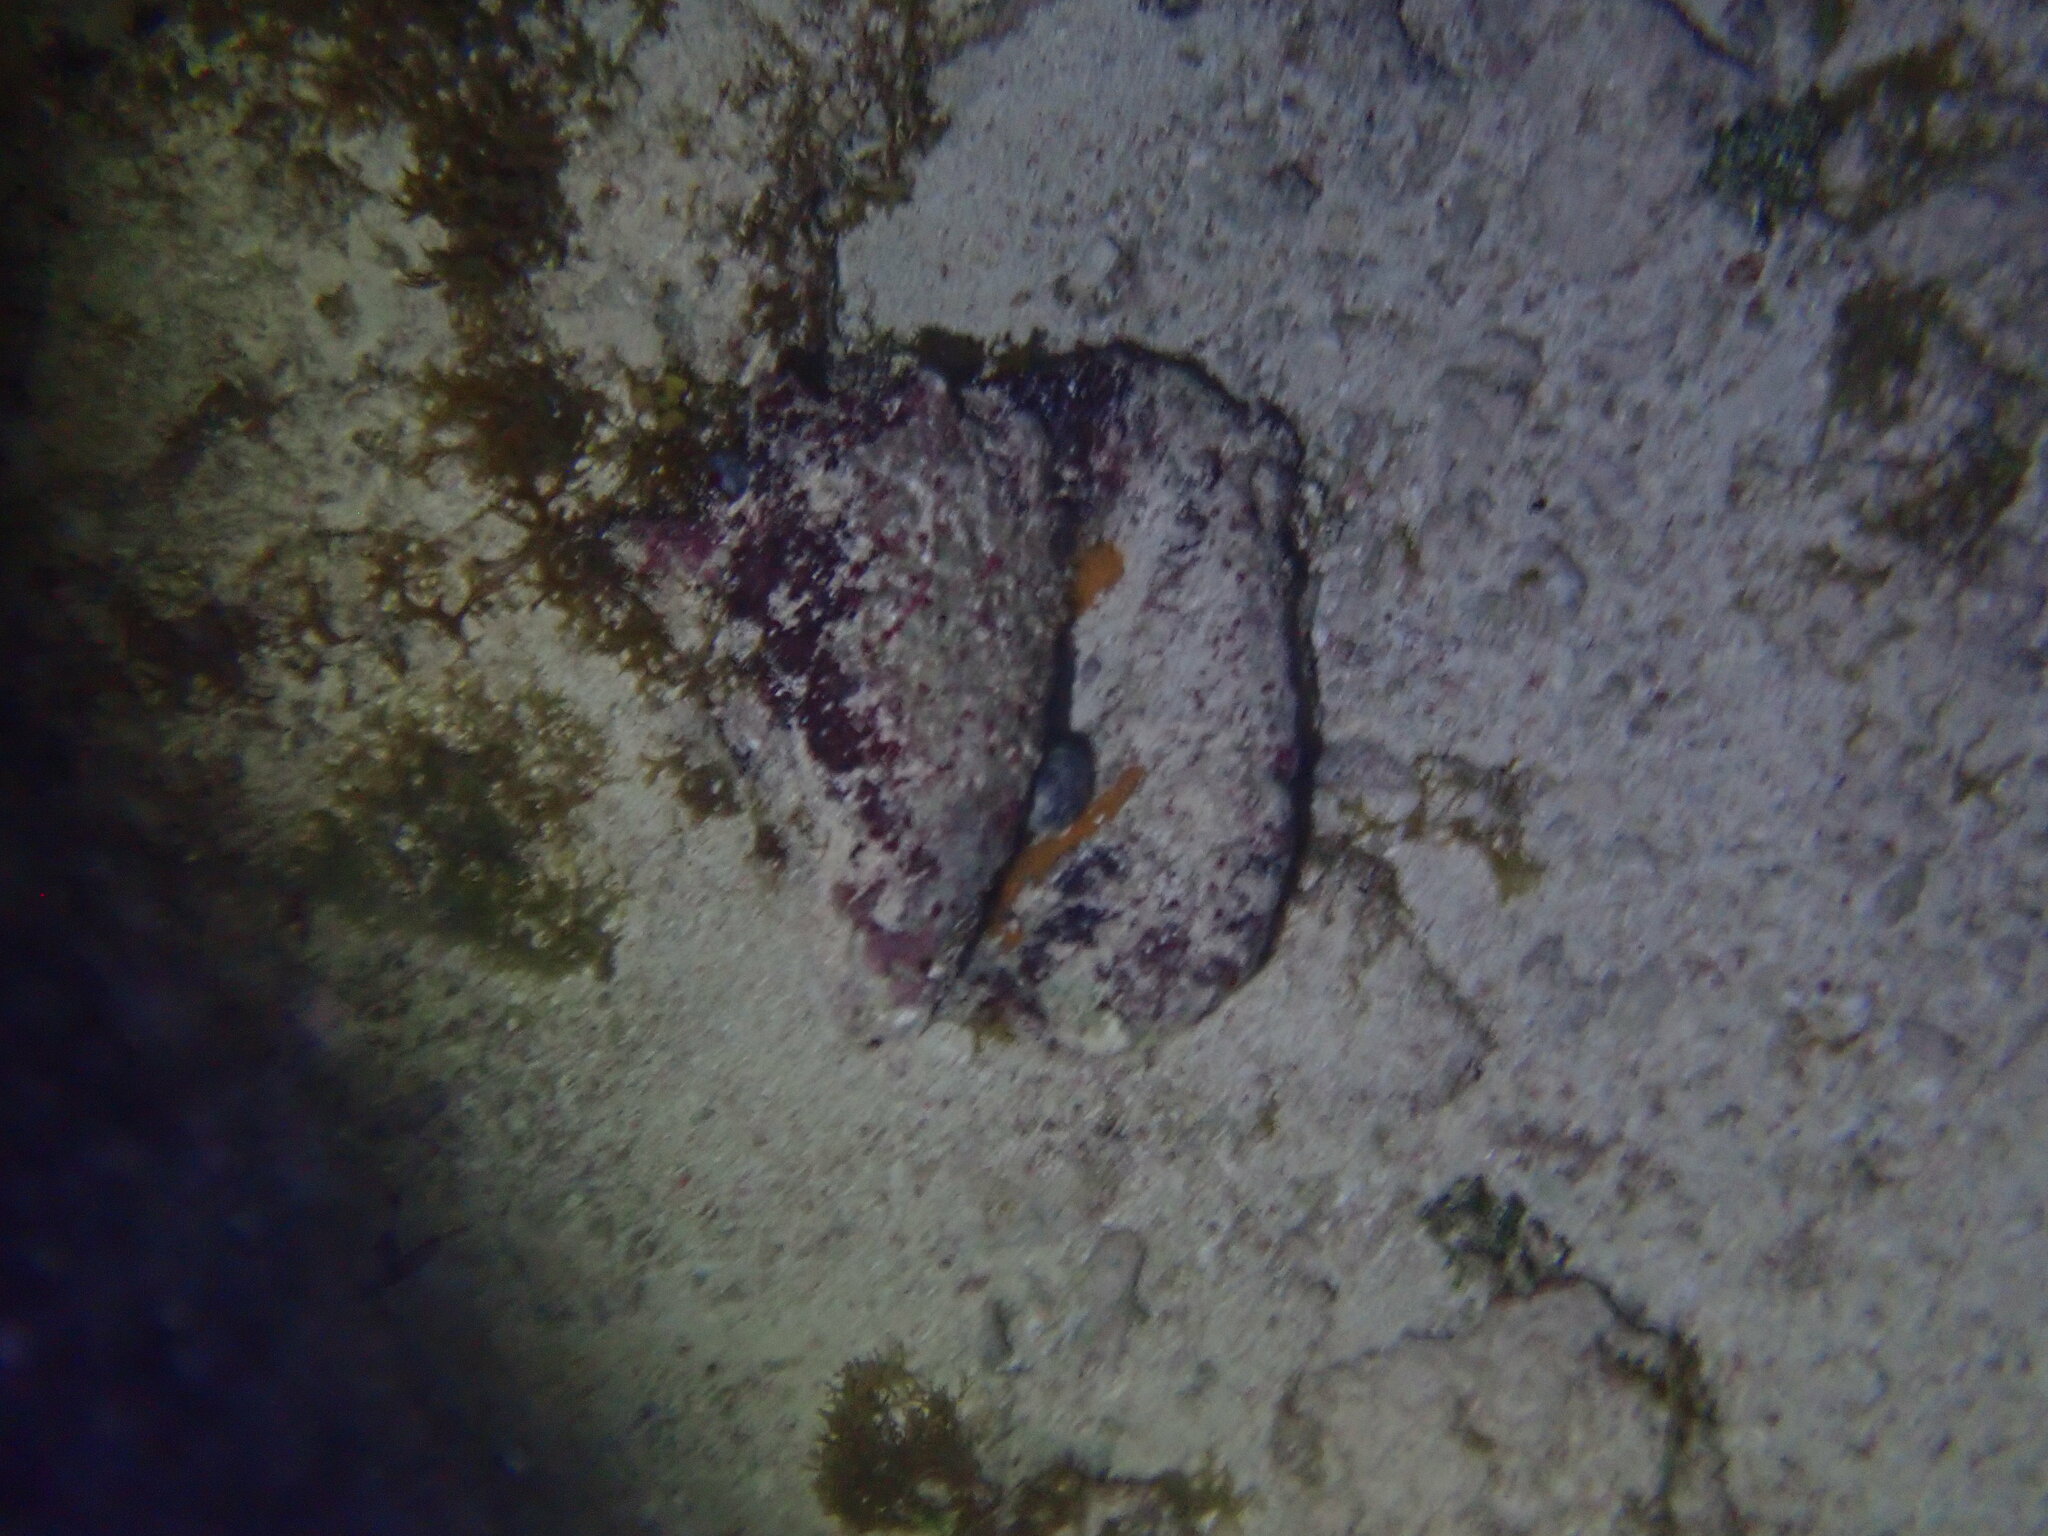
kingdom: Animalia
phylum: Mollusca
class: Gastropoda
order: Littorinimorpha
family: Strombidae
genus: Aliger
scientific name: Aliger gigas
